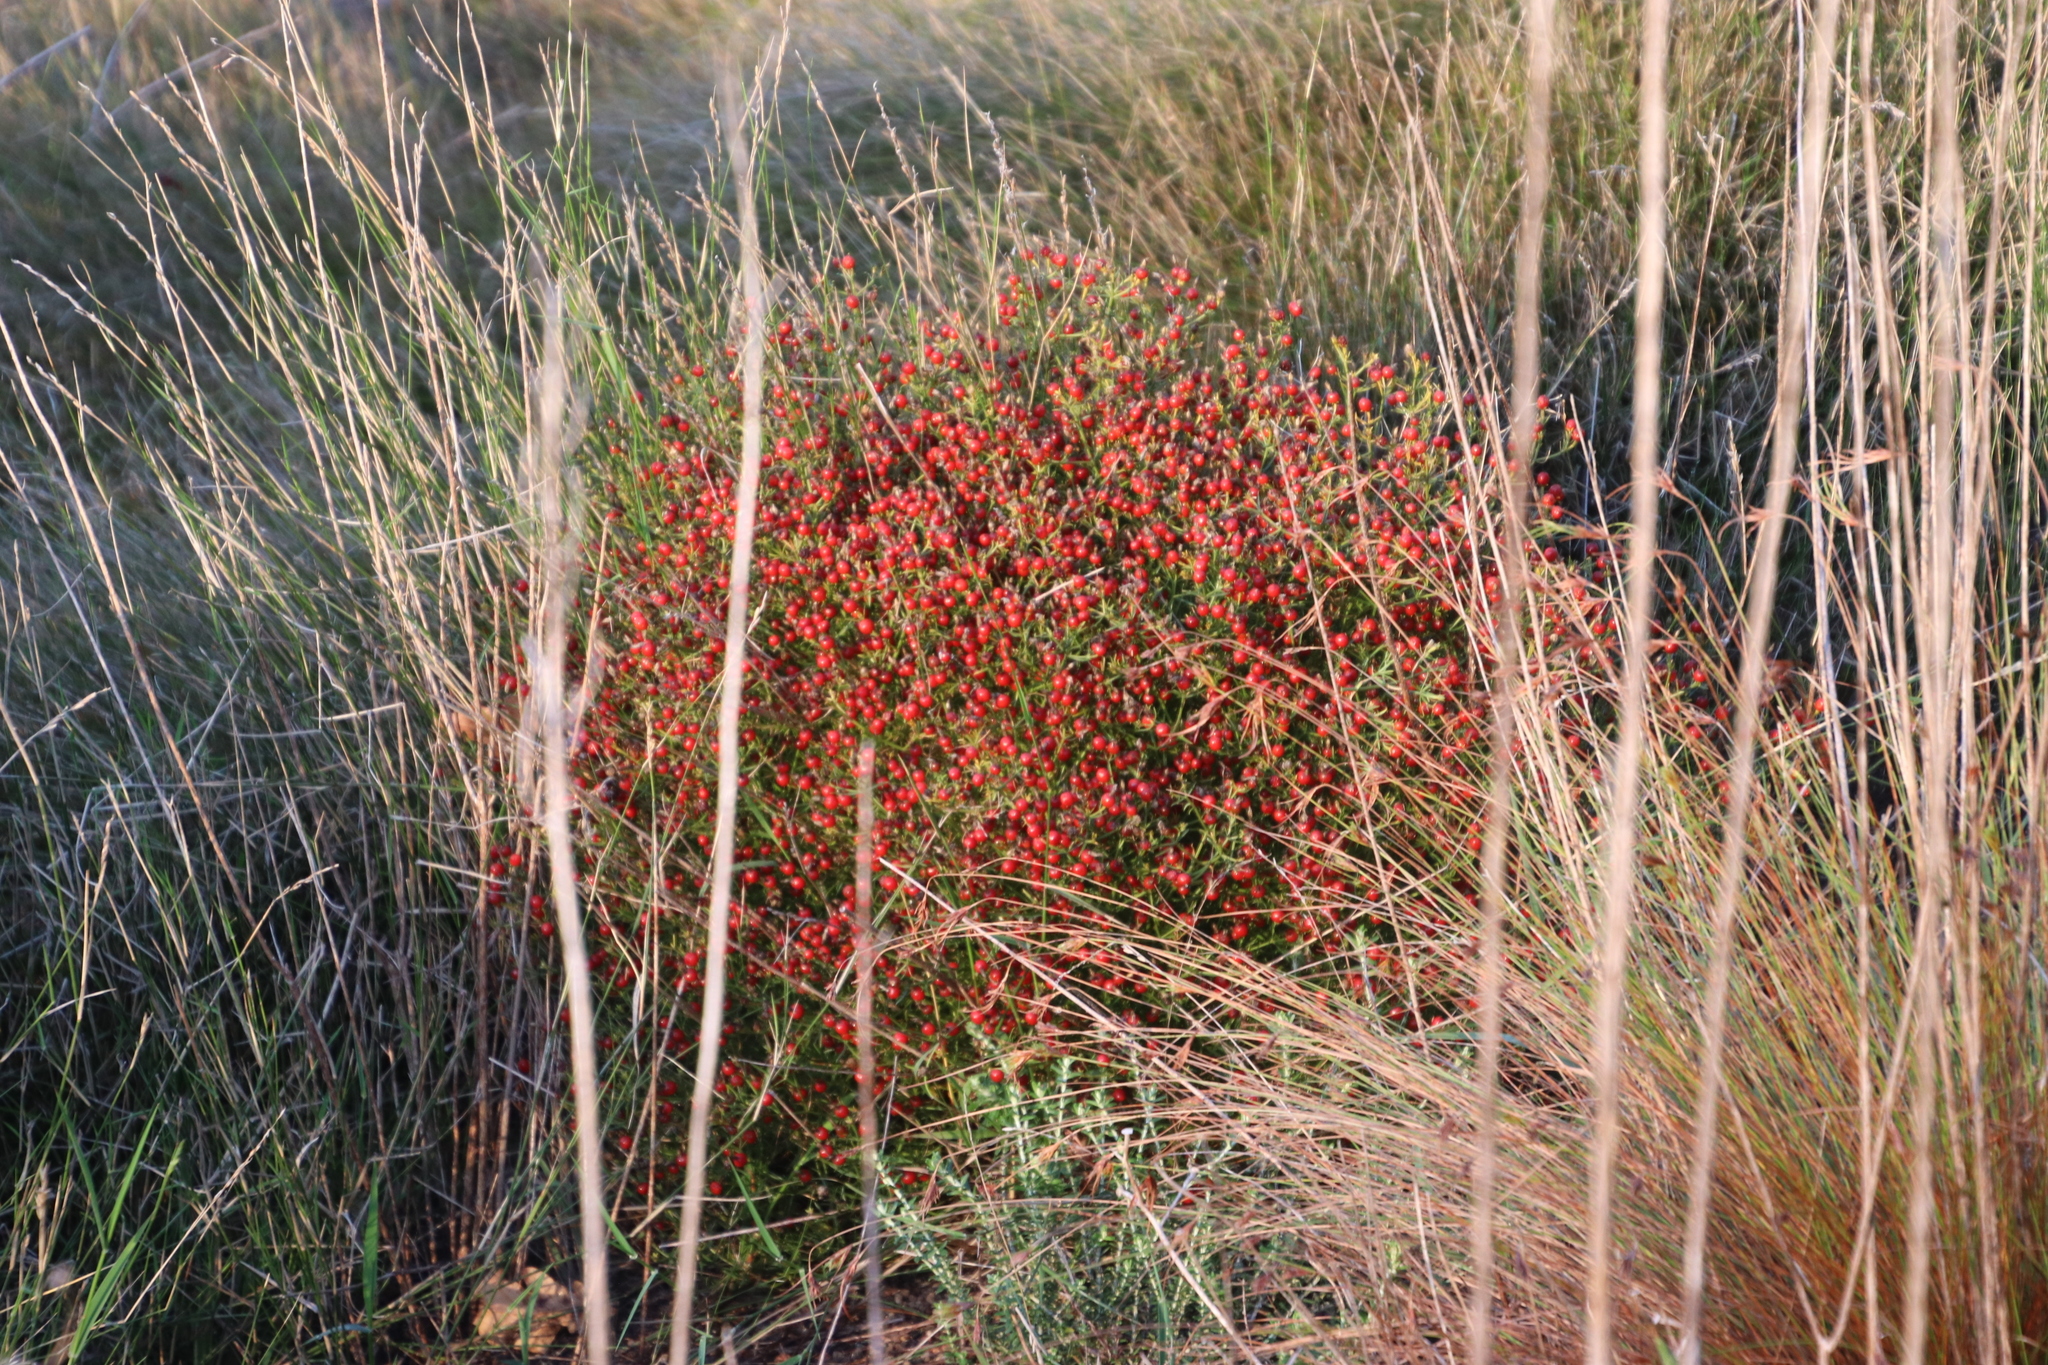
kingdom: Plantae
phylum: Tracheophyta
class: Magnoliopsida
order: Gentianales
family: Gentianaceae
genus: Chironia
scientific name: Chironia baccifera
